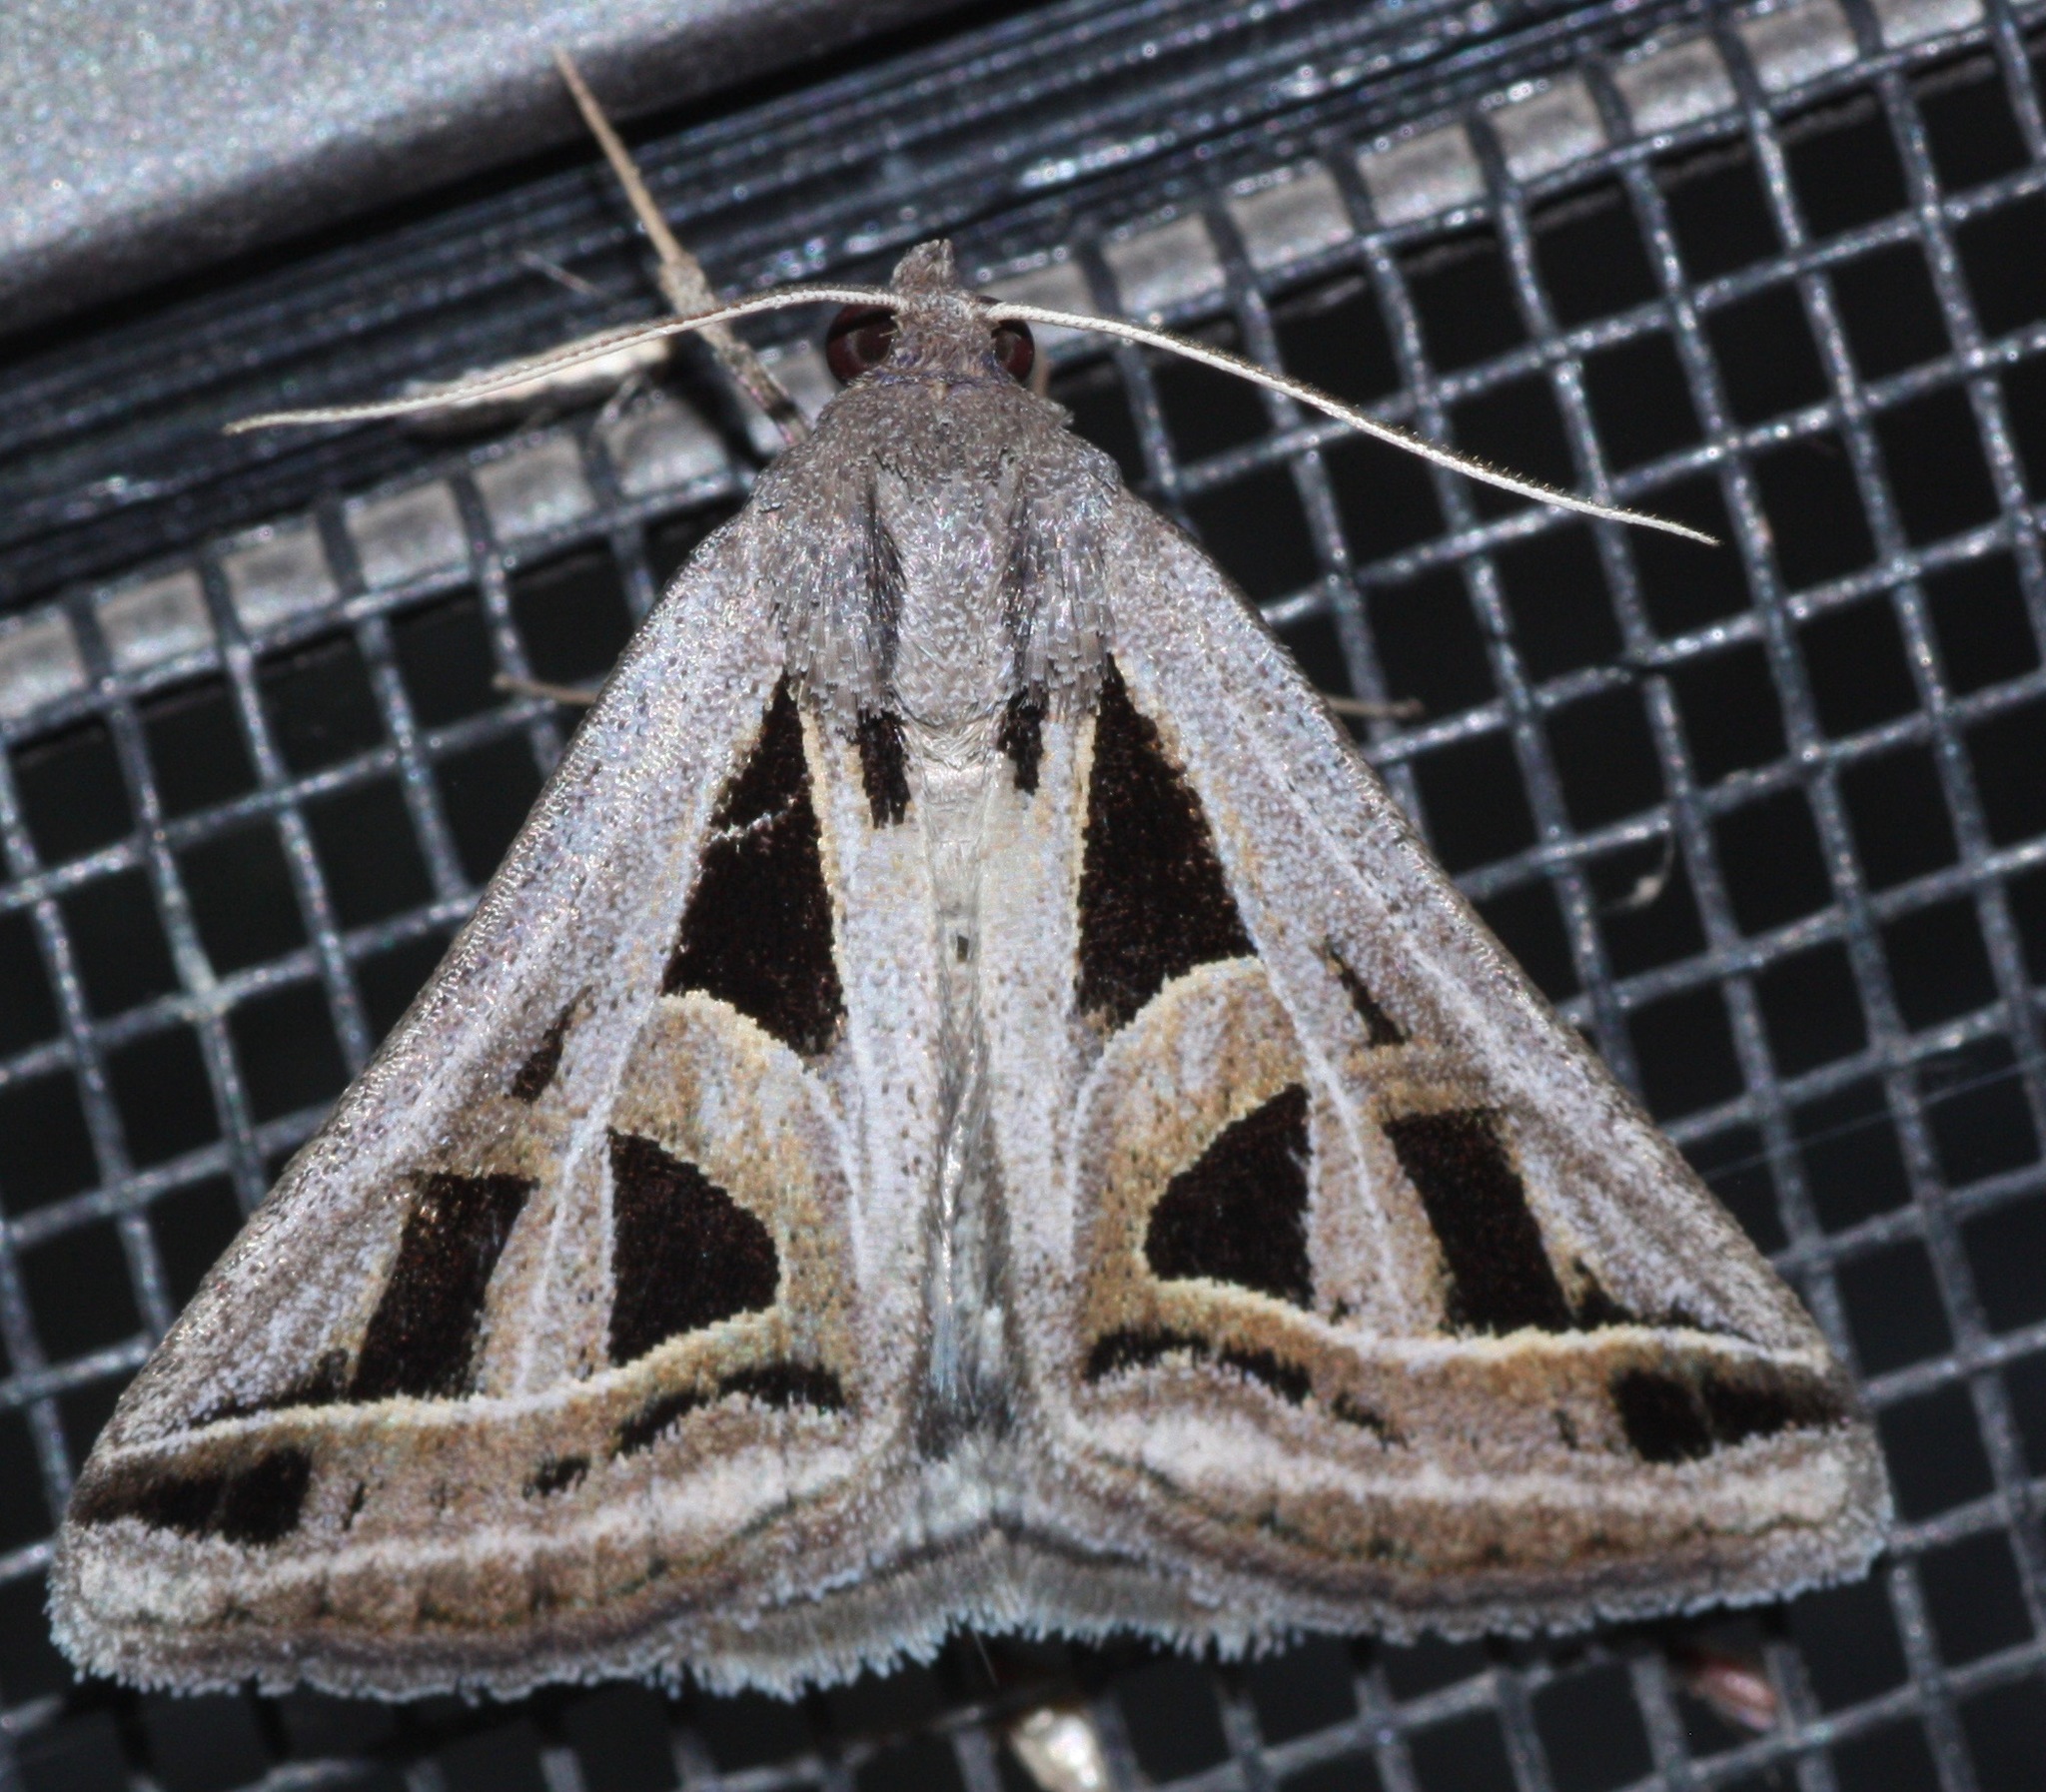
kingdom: Animalia
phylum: Arthropoda
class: Insecta
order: Lepidoptera
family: Erebidae
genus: Callistege
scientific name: Callistege diagonalis
